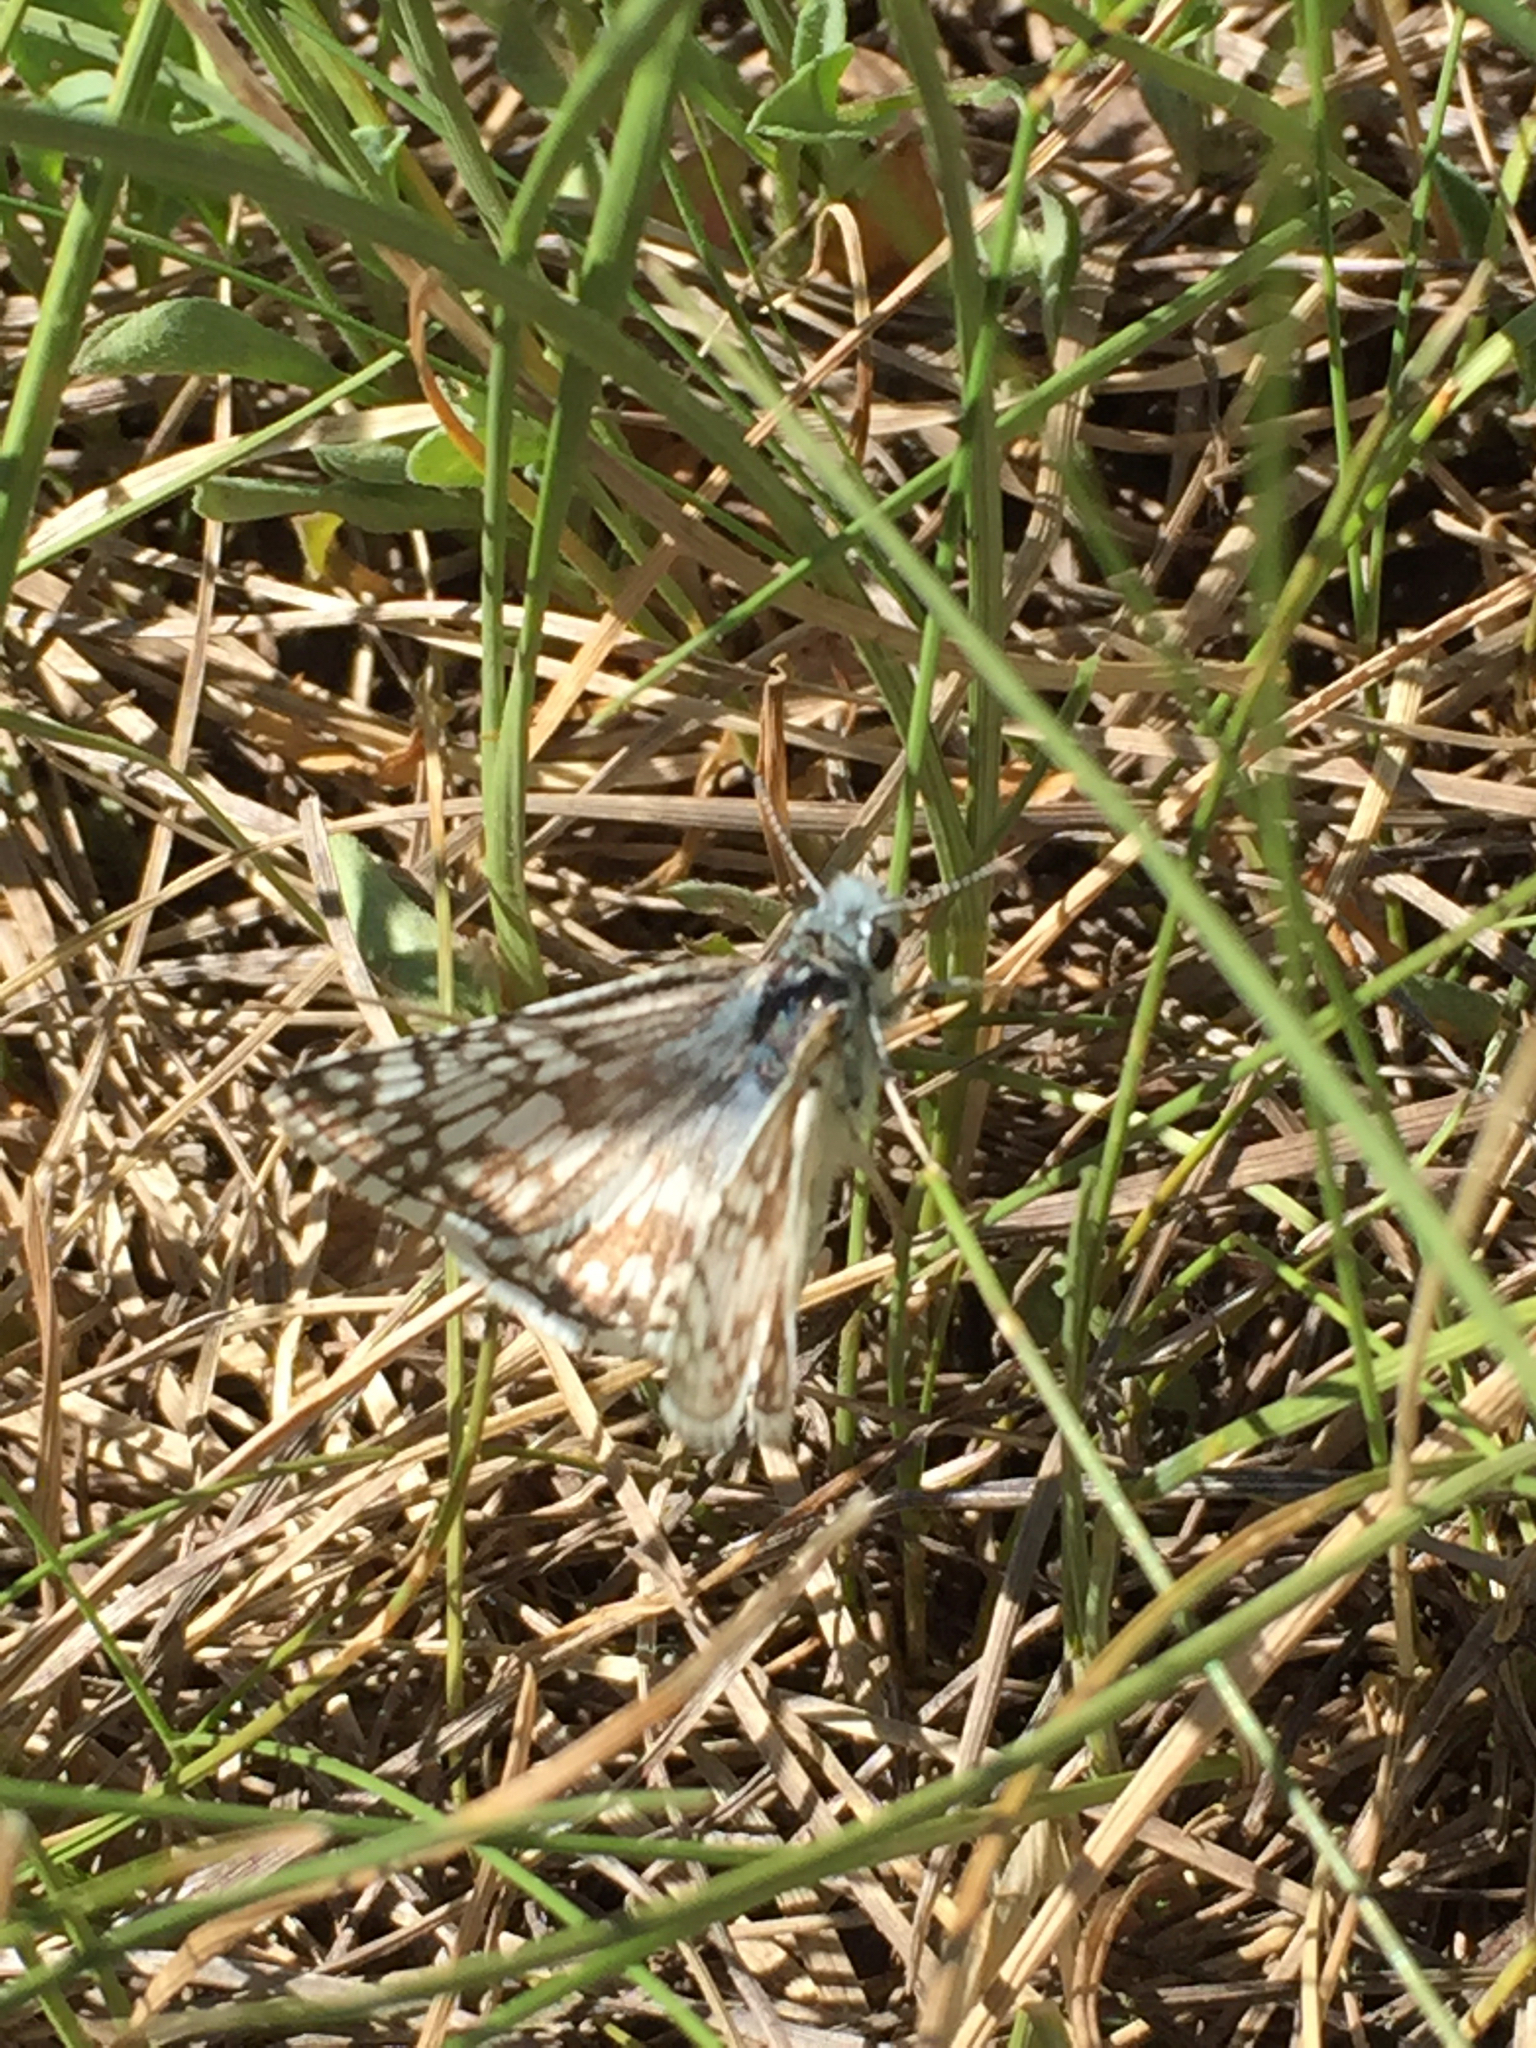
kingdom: Animalia
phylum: Arthropoda
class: Insecta
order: Lepidoptera
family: Hesperiidae
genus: Burnsius
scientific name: Burnsius communis
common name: Common checkered-skipper
